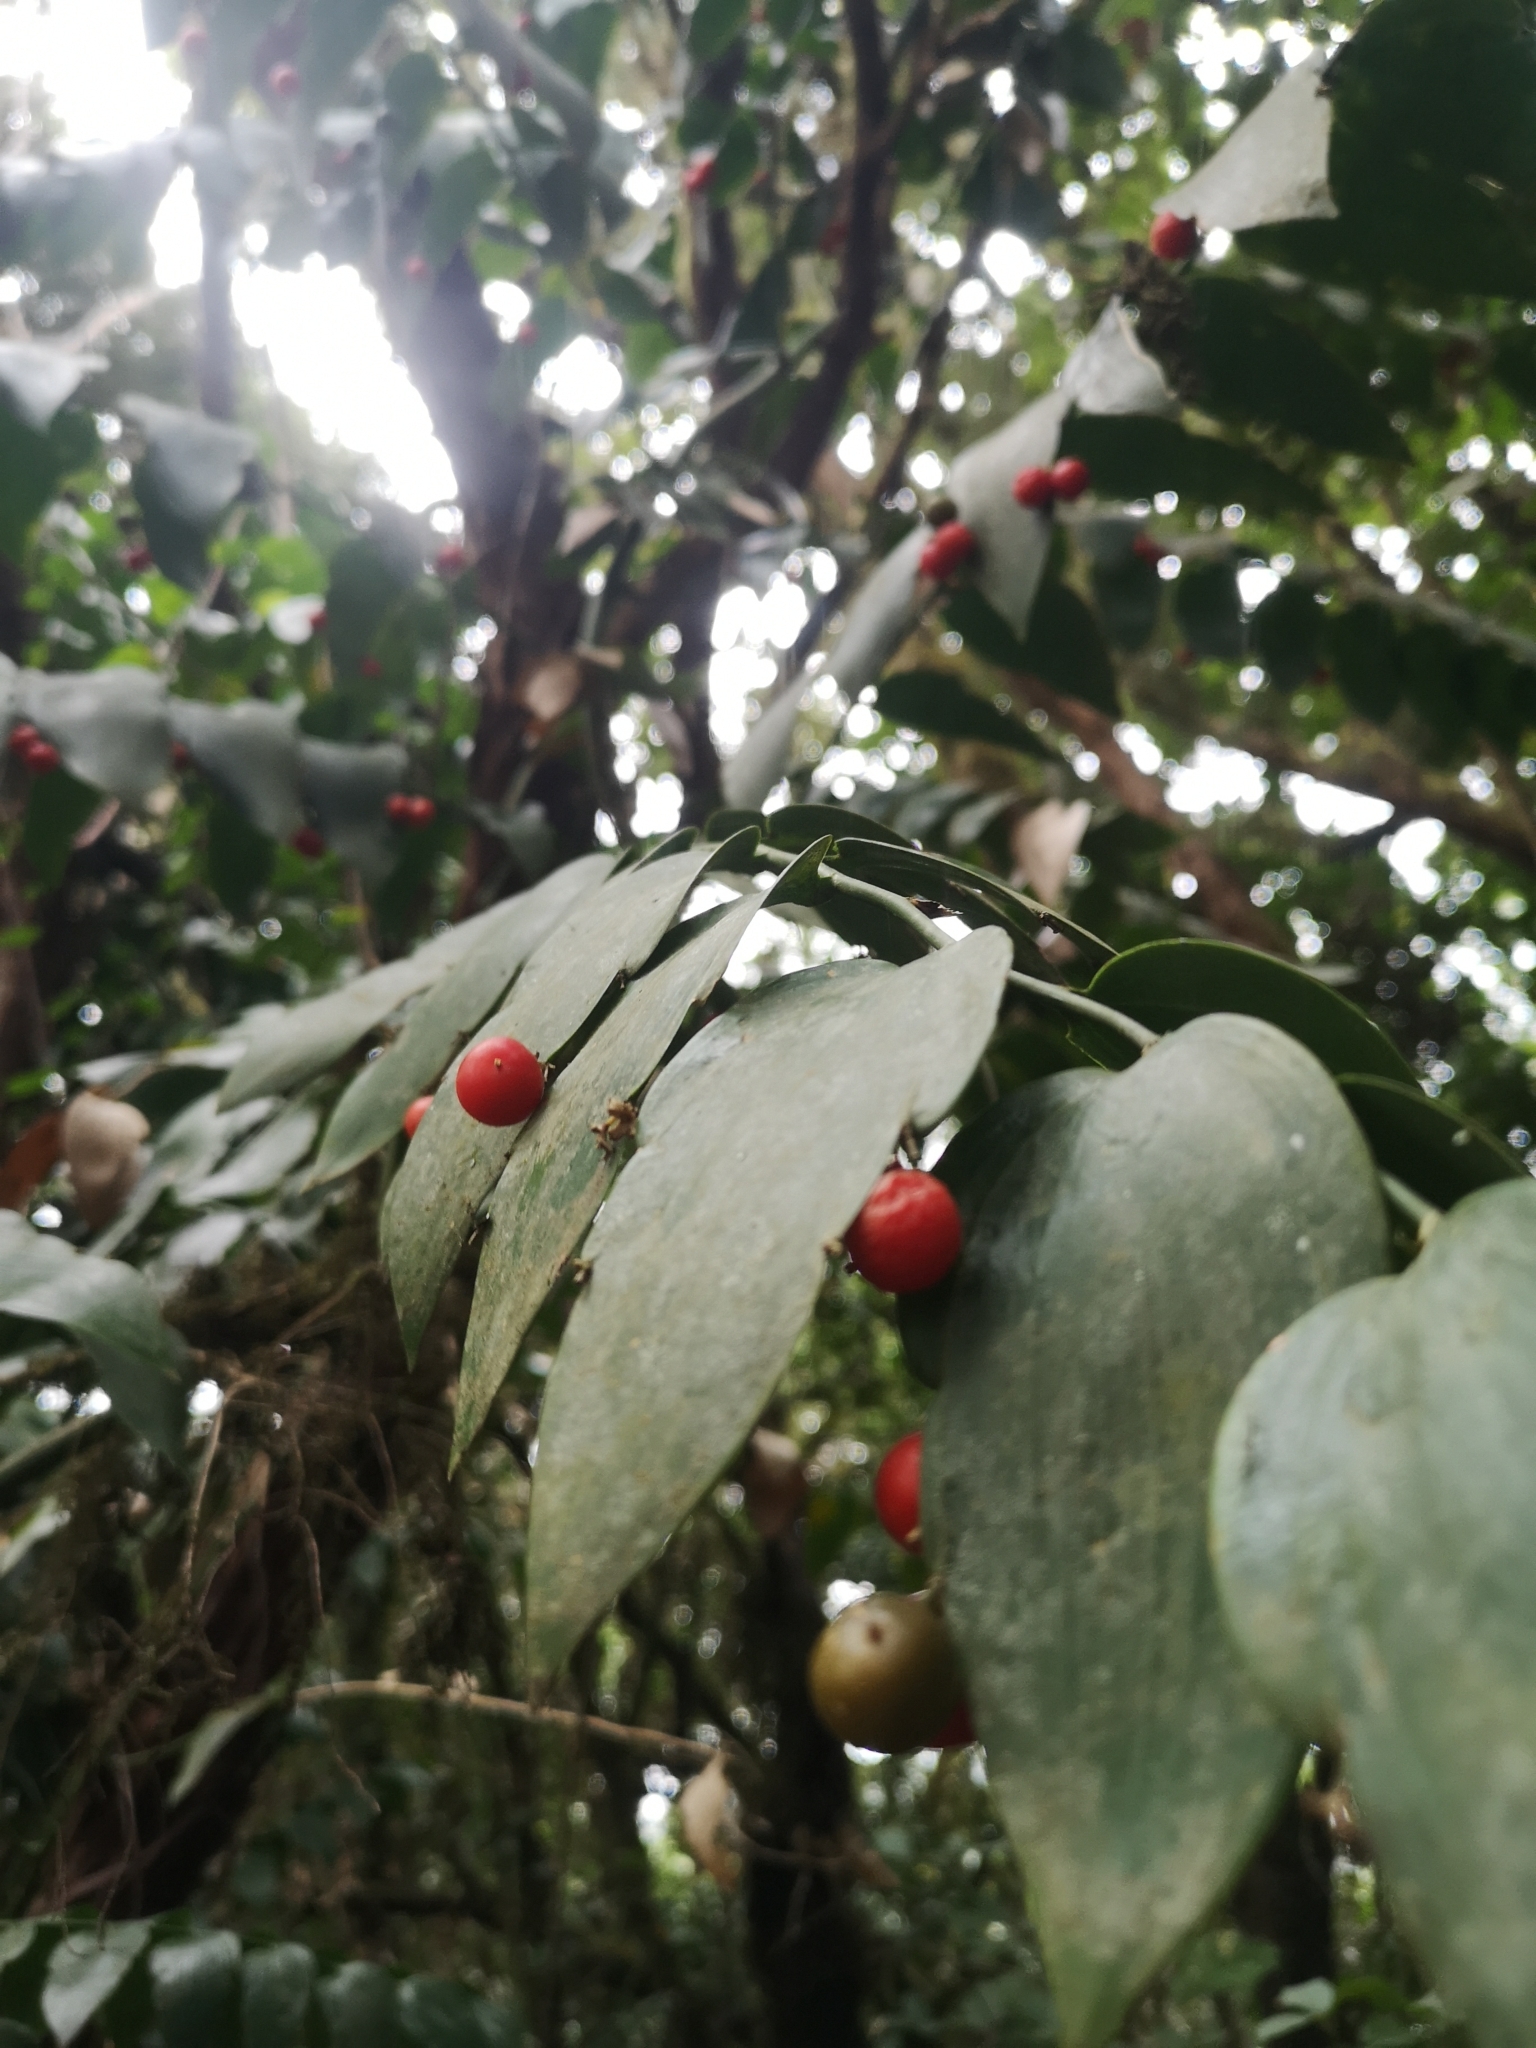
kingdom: Plantae
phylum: Tracheophyta
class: Liliopsida
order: Asparagales
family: Asparagaceae
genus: Semele
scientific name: Semele androgyna
